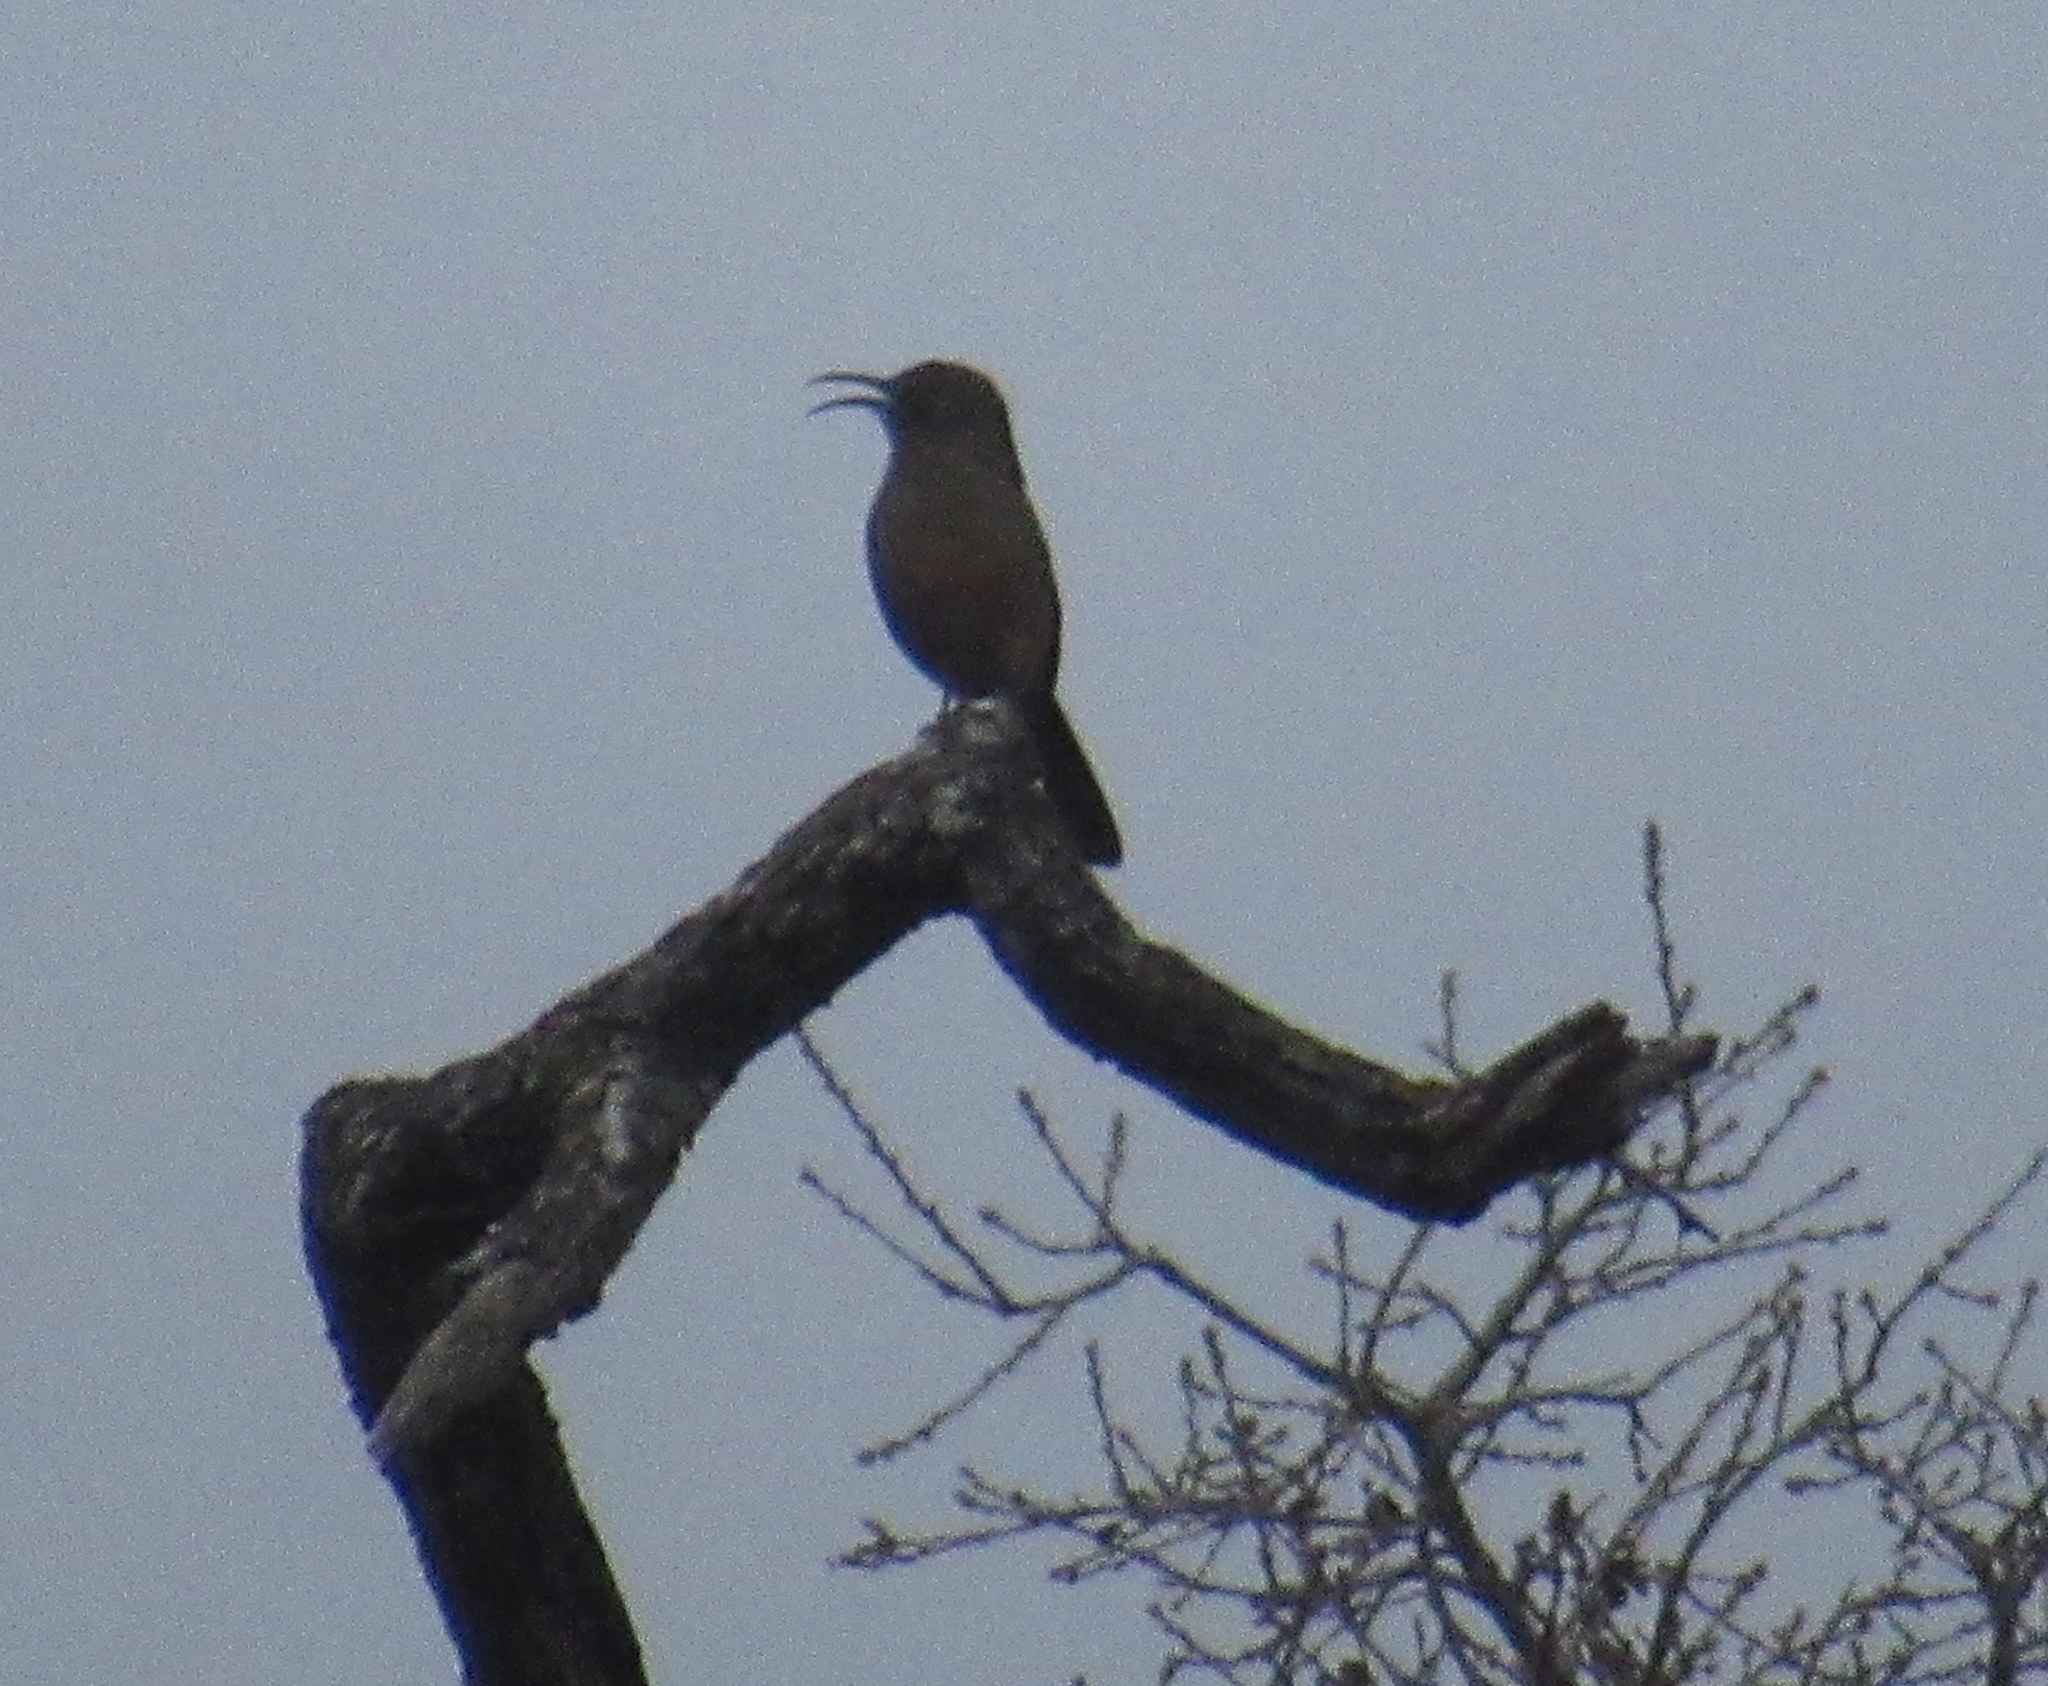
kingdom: Animalia
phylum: Chordata
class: Aves
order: Passeriformes
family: Mimidae
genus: Toxostoma
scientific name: Toxostoma redivivum
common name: California thrasher
